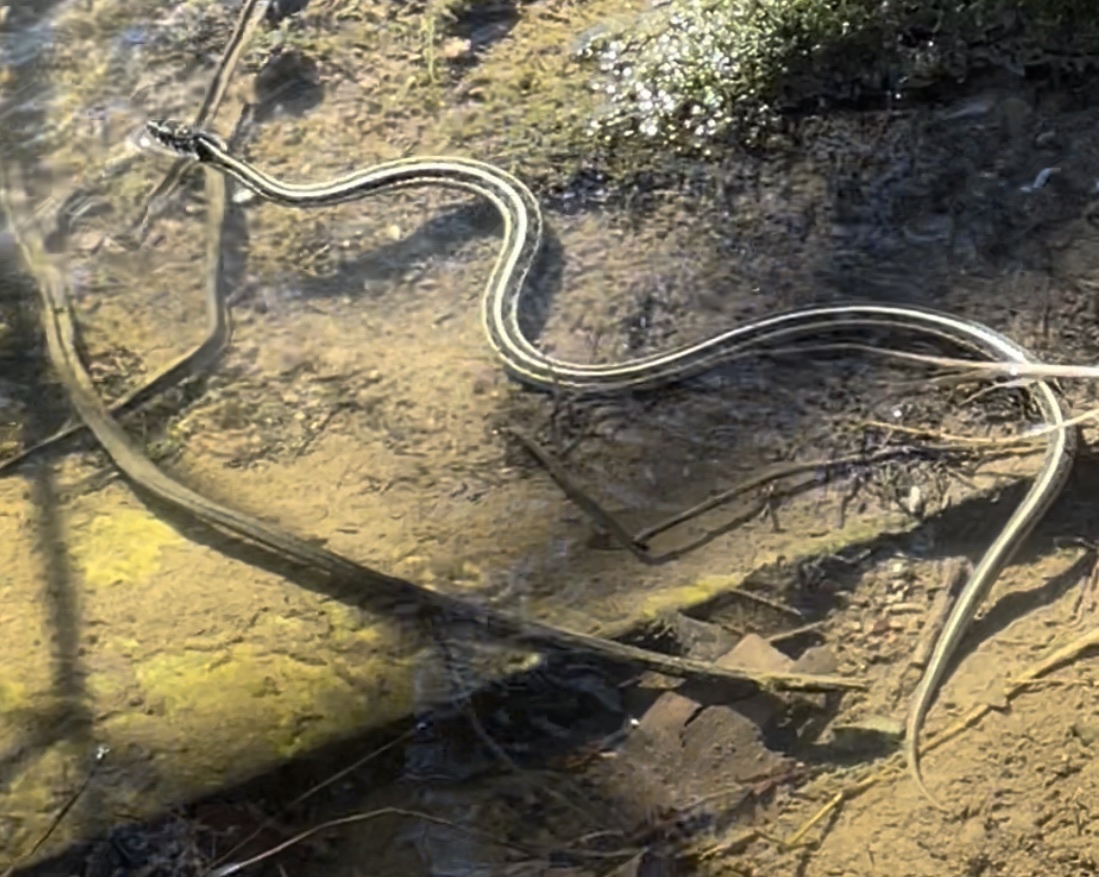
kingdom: Animalia
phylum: Chordata
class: Squamata
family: Colubridae
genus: Thamnophis
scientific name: Thamnophis sirtalis
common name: Common garter snake
